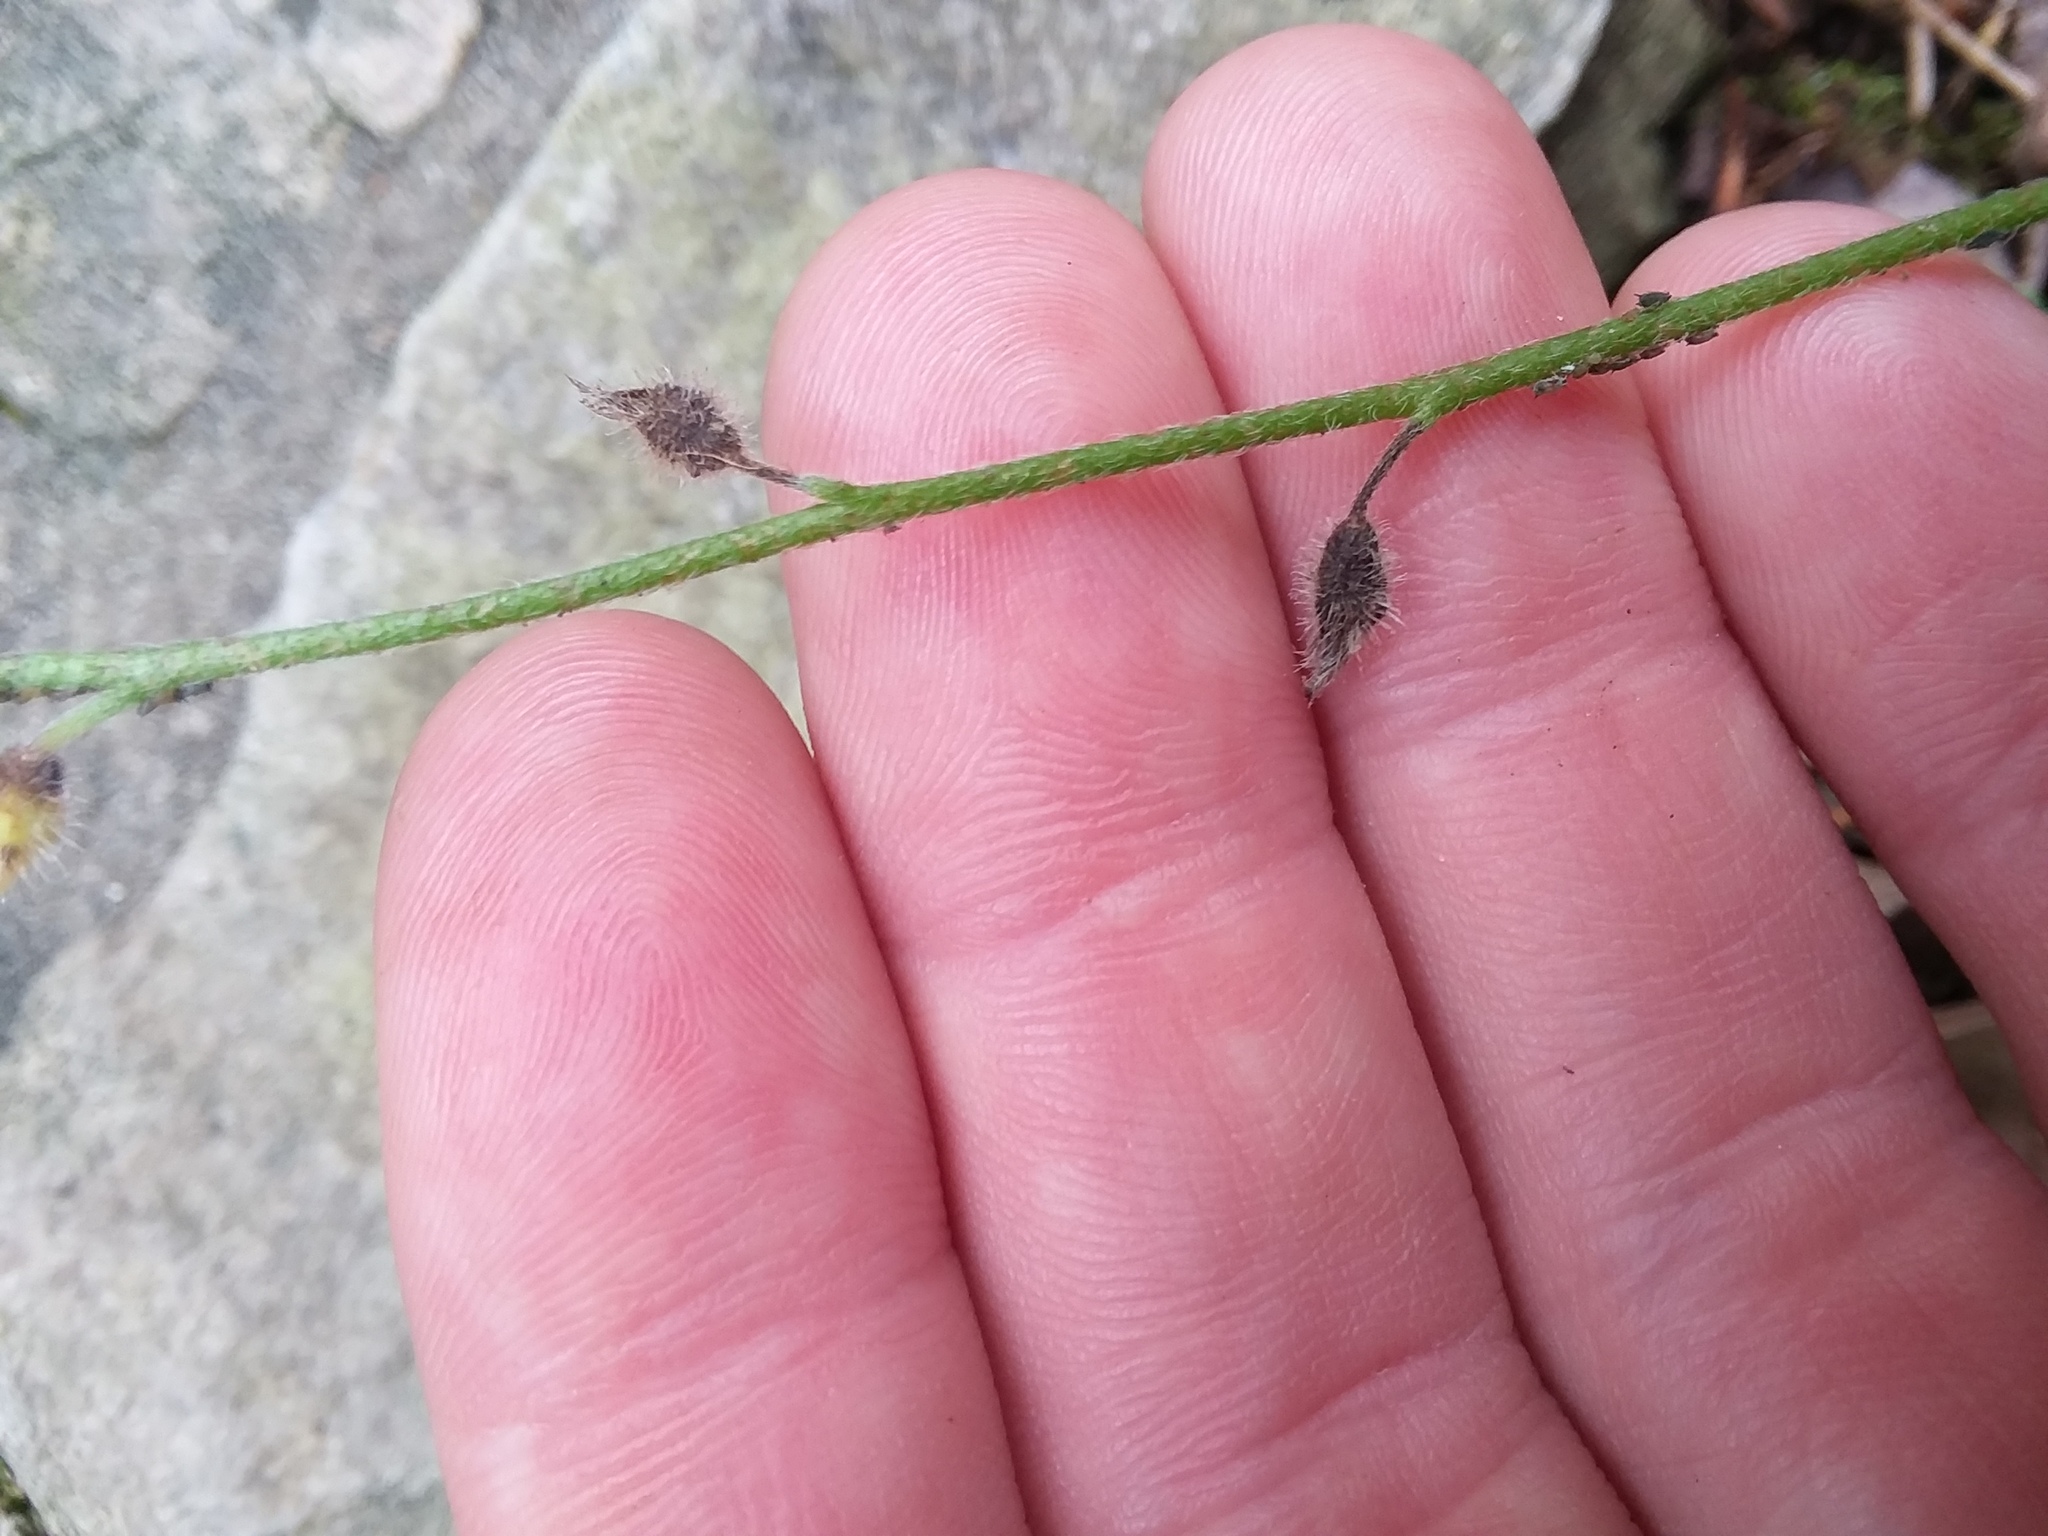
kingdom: Plantae
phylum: Tracheophyta
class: Magnoliopsida
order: Boraginales
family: Boraginaceae
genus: Myosotis
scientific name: Myosotis macrosperma
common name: Large-seed forget-me-not
